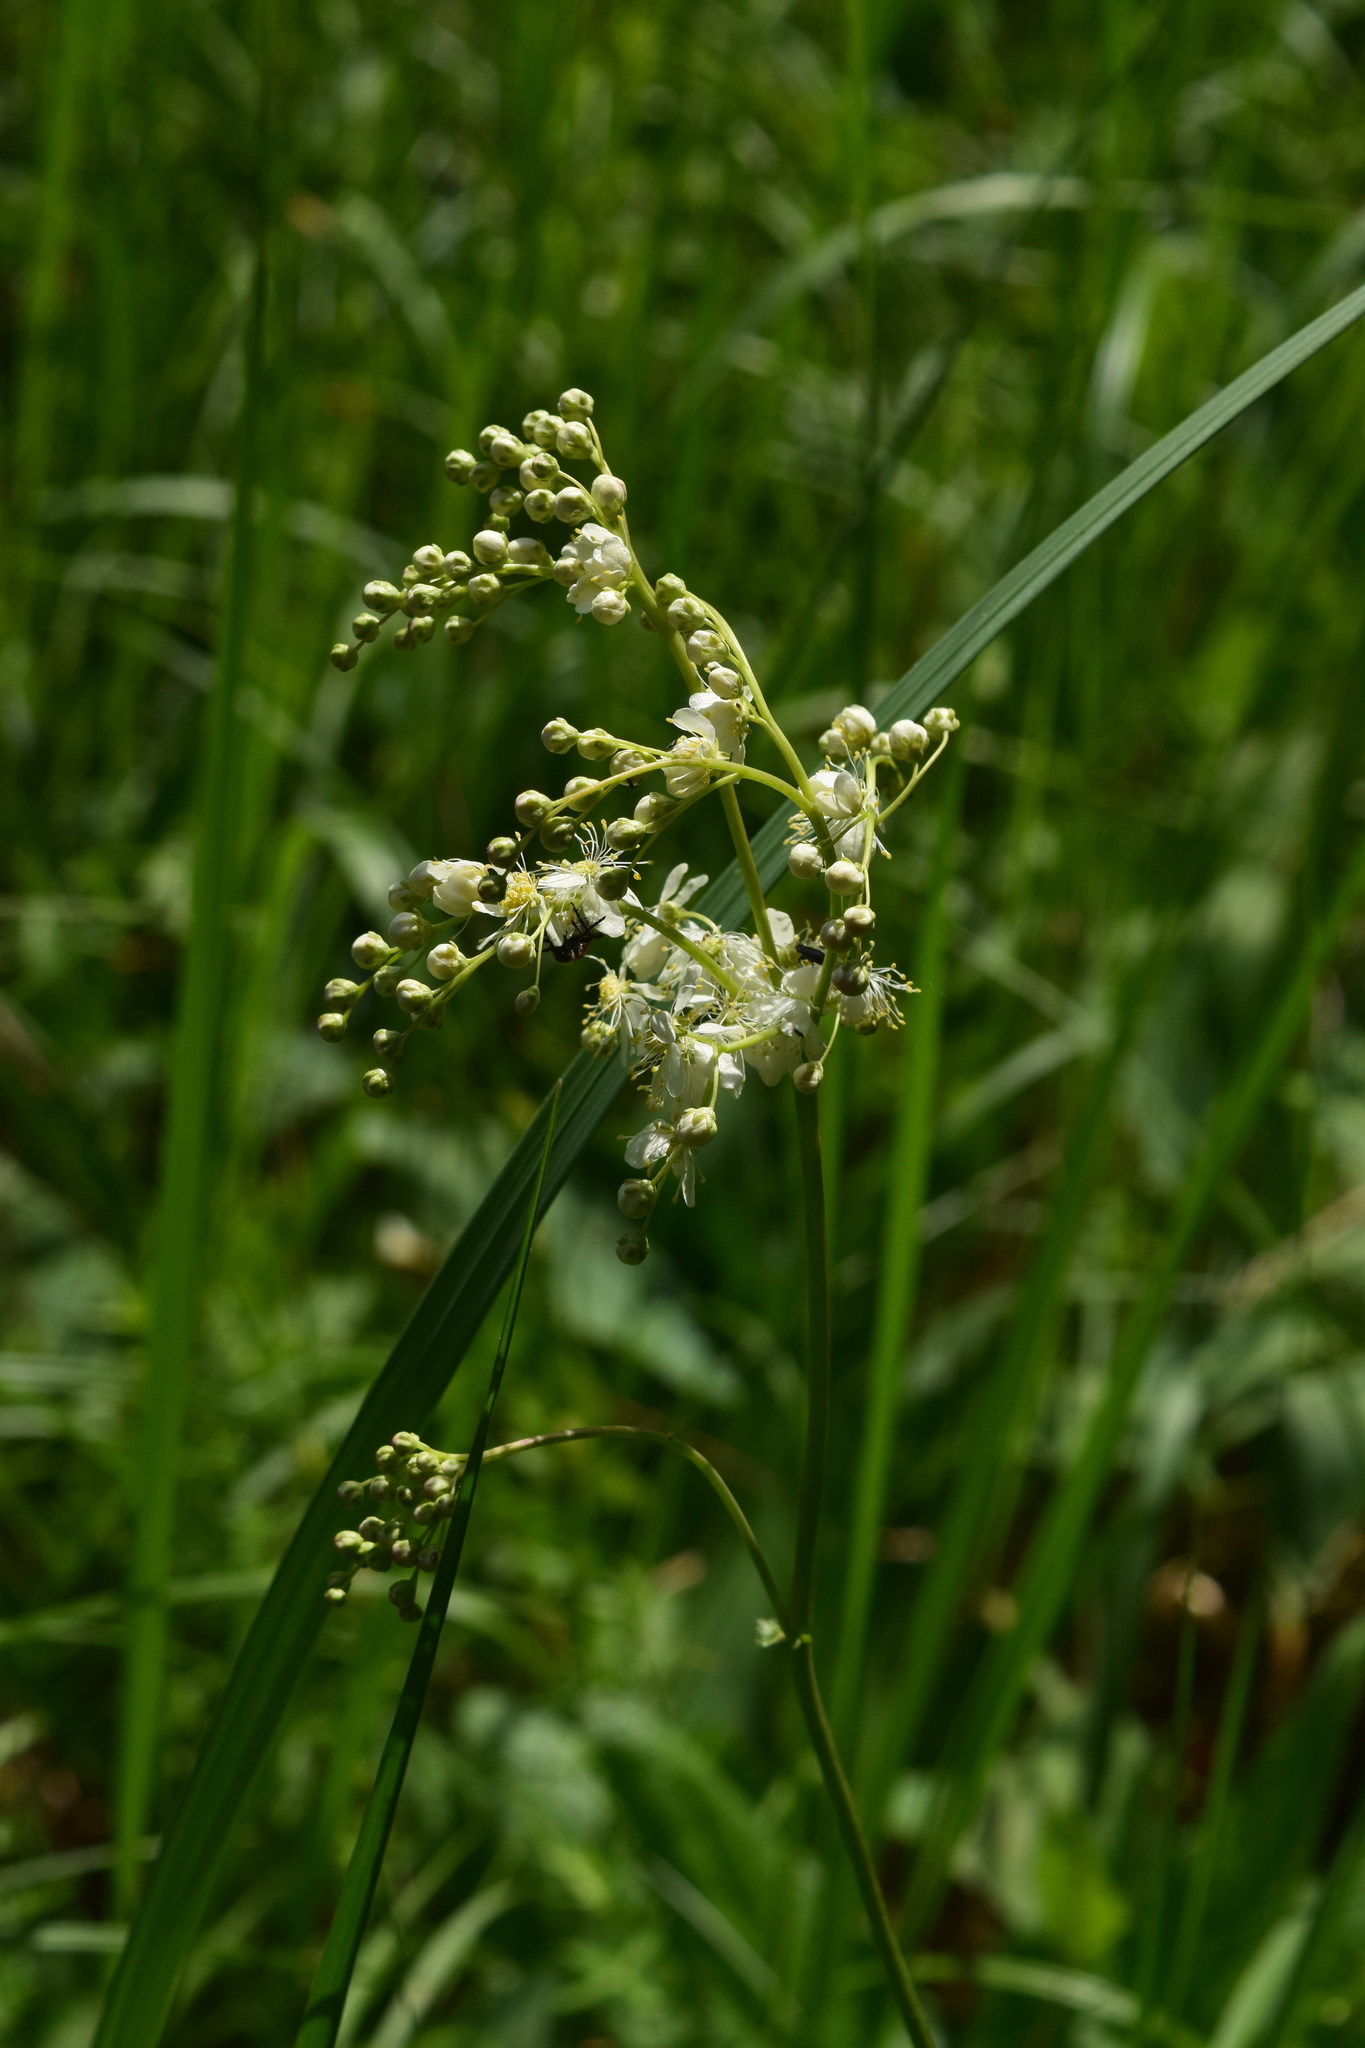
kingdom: Plantae
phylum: Tracheophyta
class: Magnoliopsida
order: Rosales
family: Rosaceae
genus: Filipendula
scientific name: Filipendula vulgaris
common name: Dropwort
